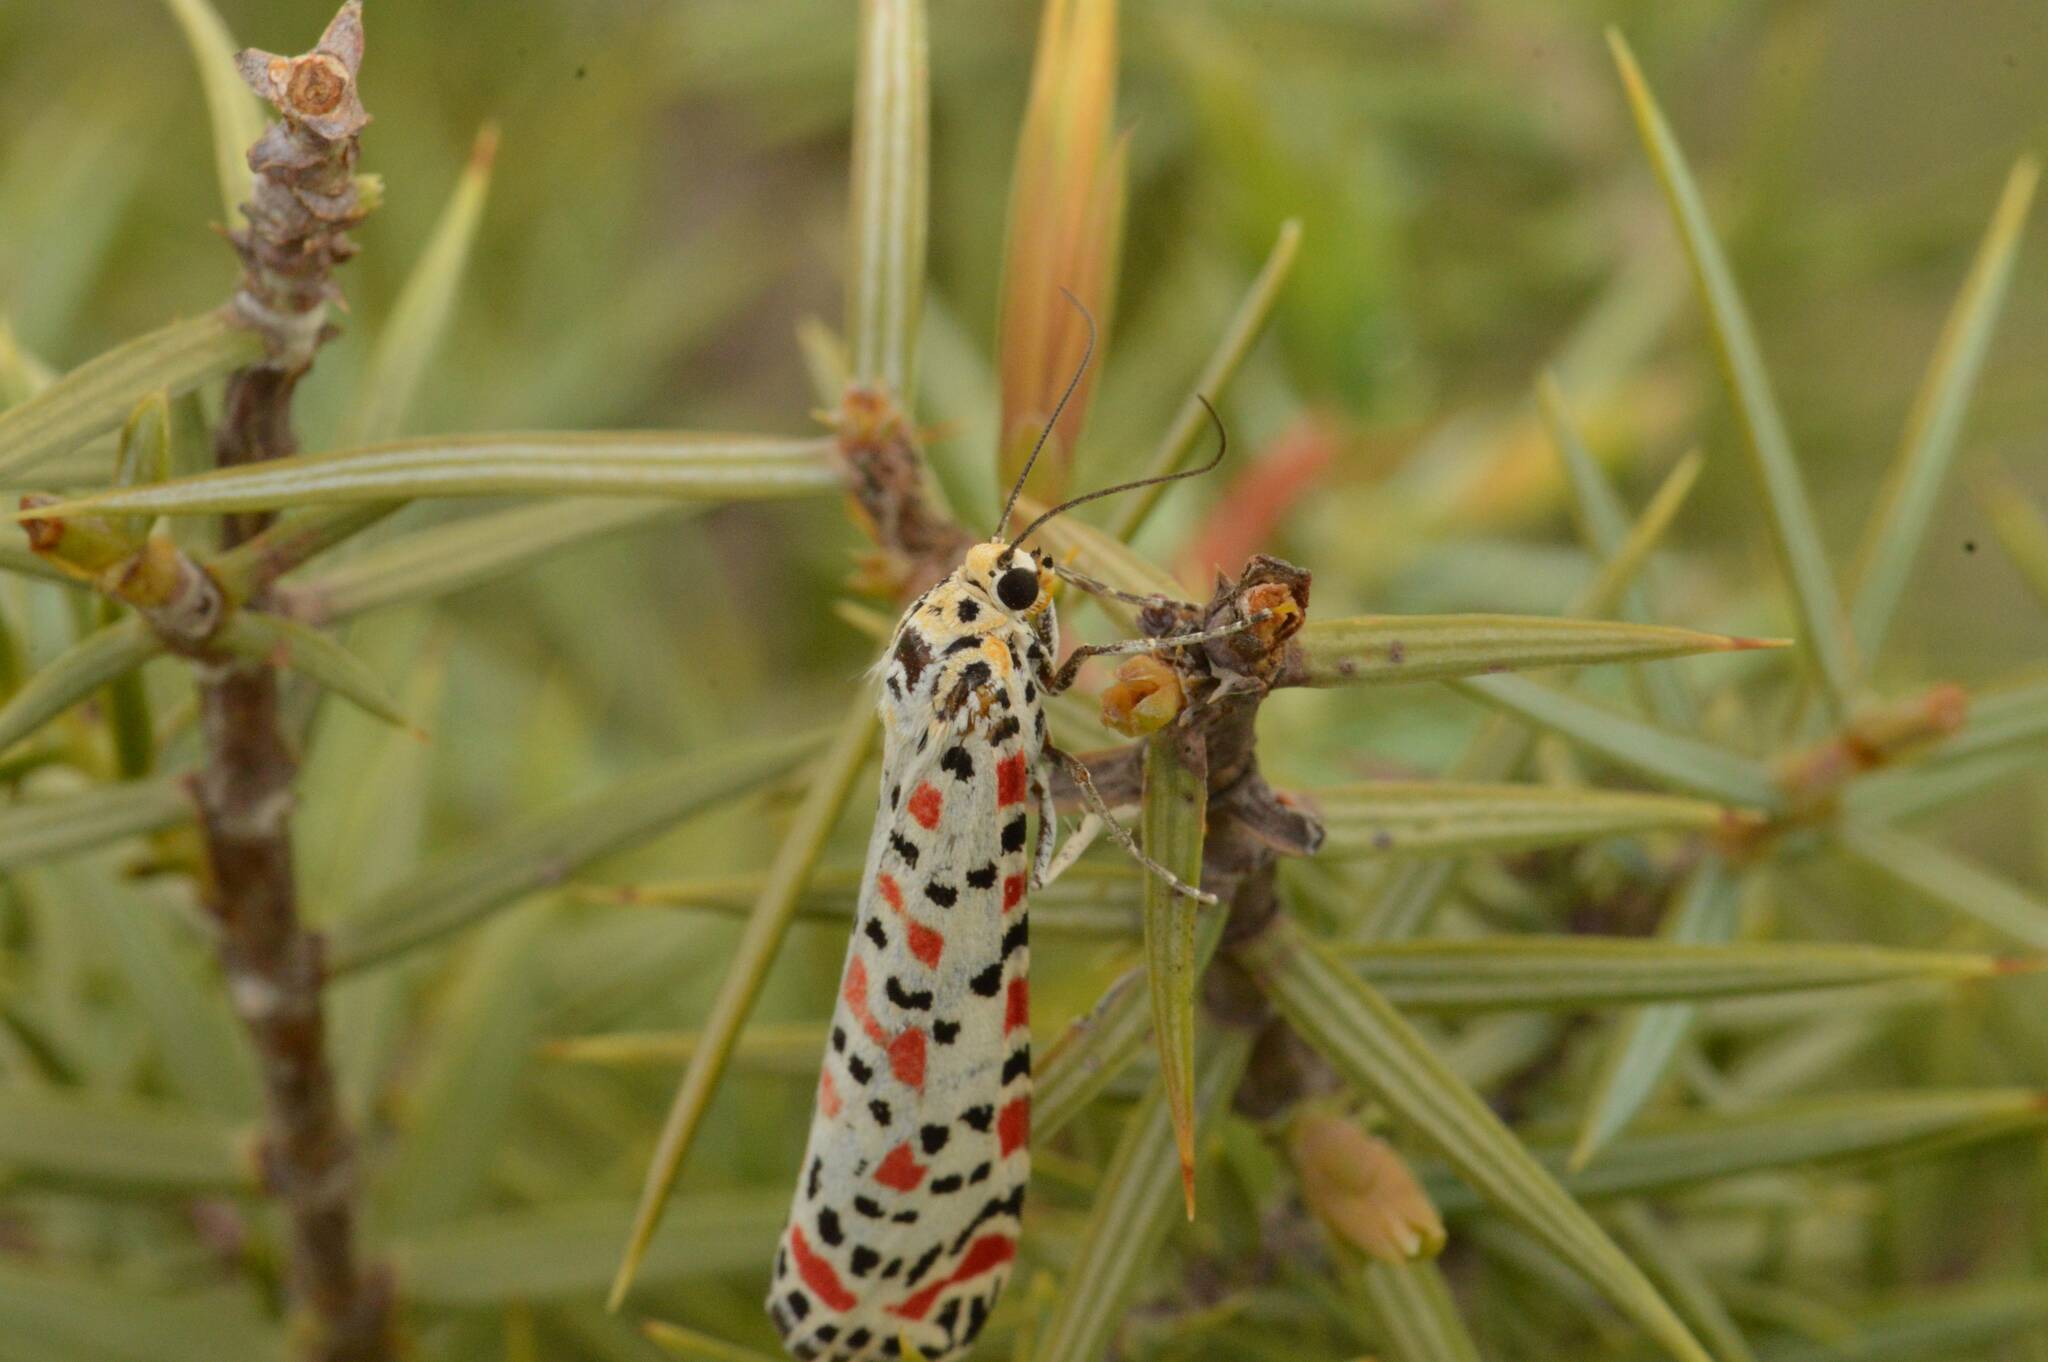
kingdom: Animalia
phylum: Arthropoda
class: Insecta
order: Lepidoptera
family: Erebidae
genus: Utetheisa
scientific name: Utetheisa pulchella
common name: Crimson speckled
